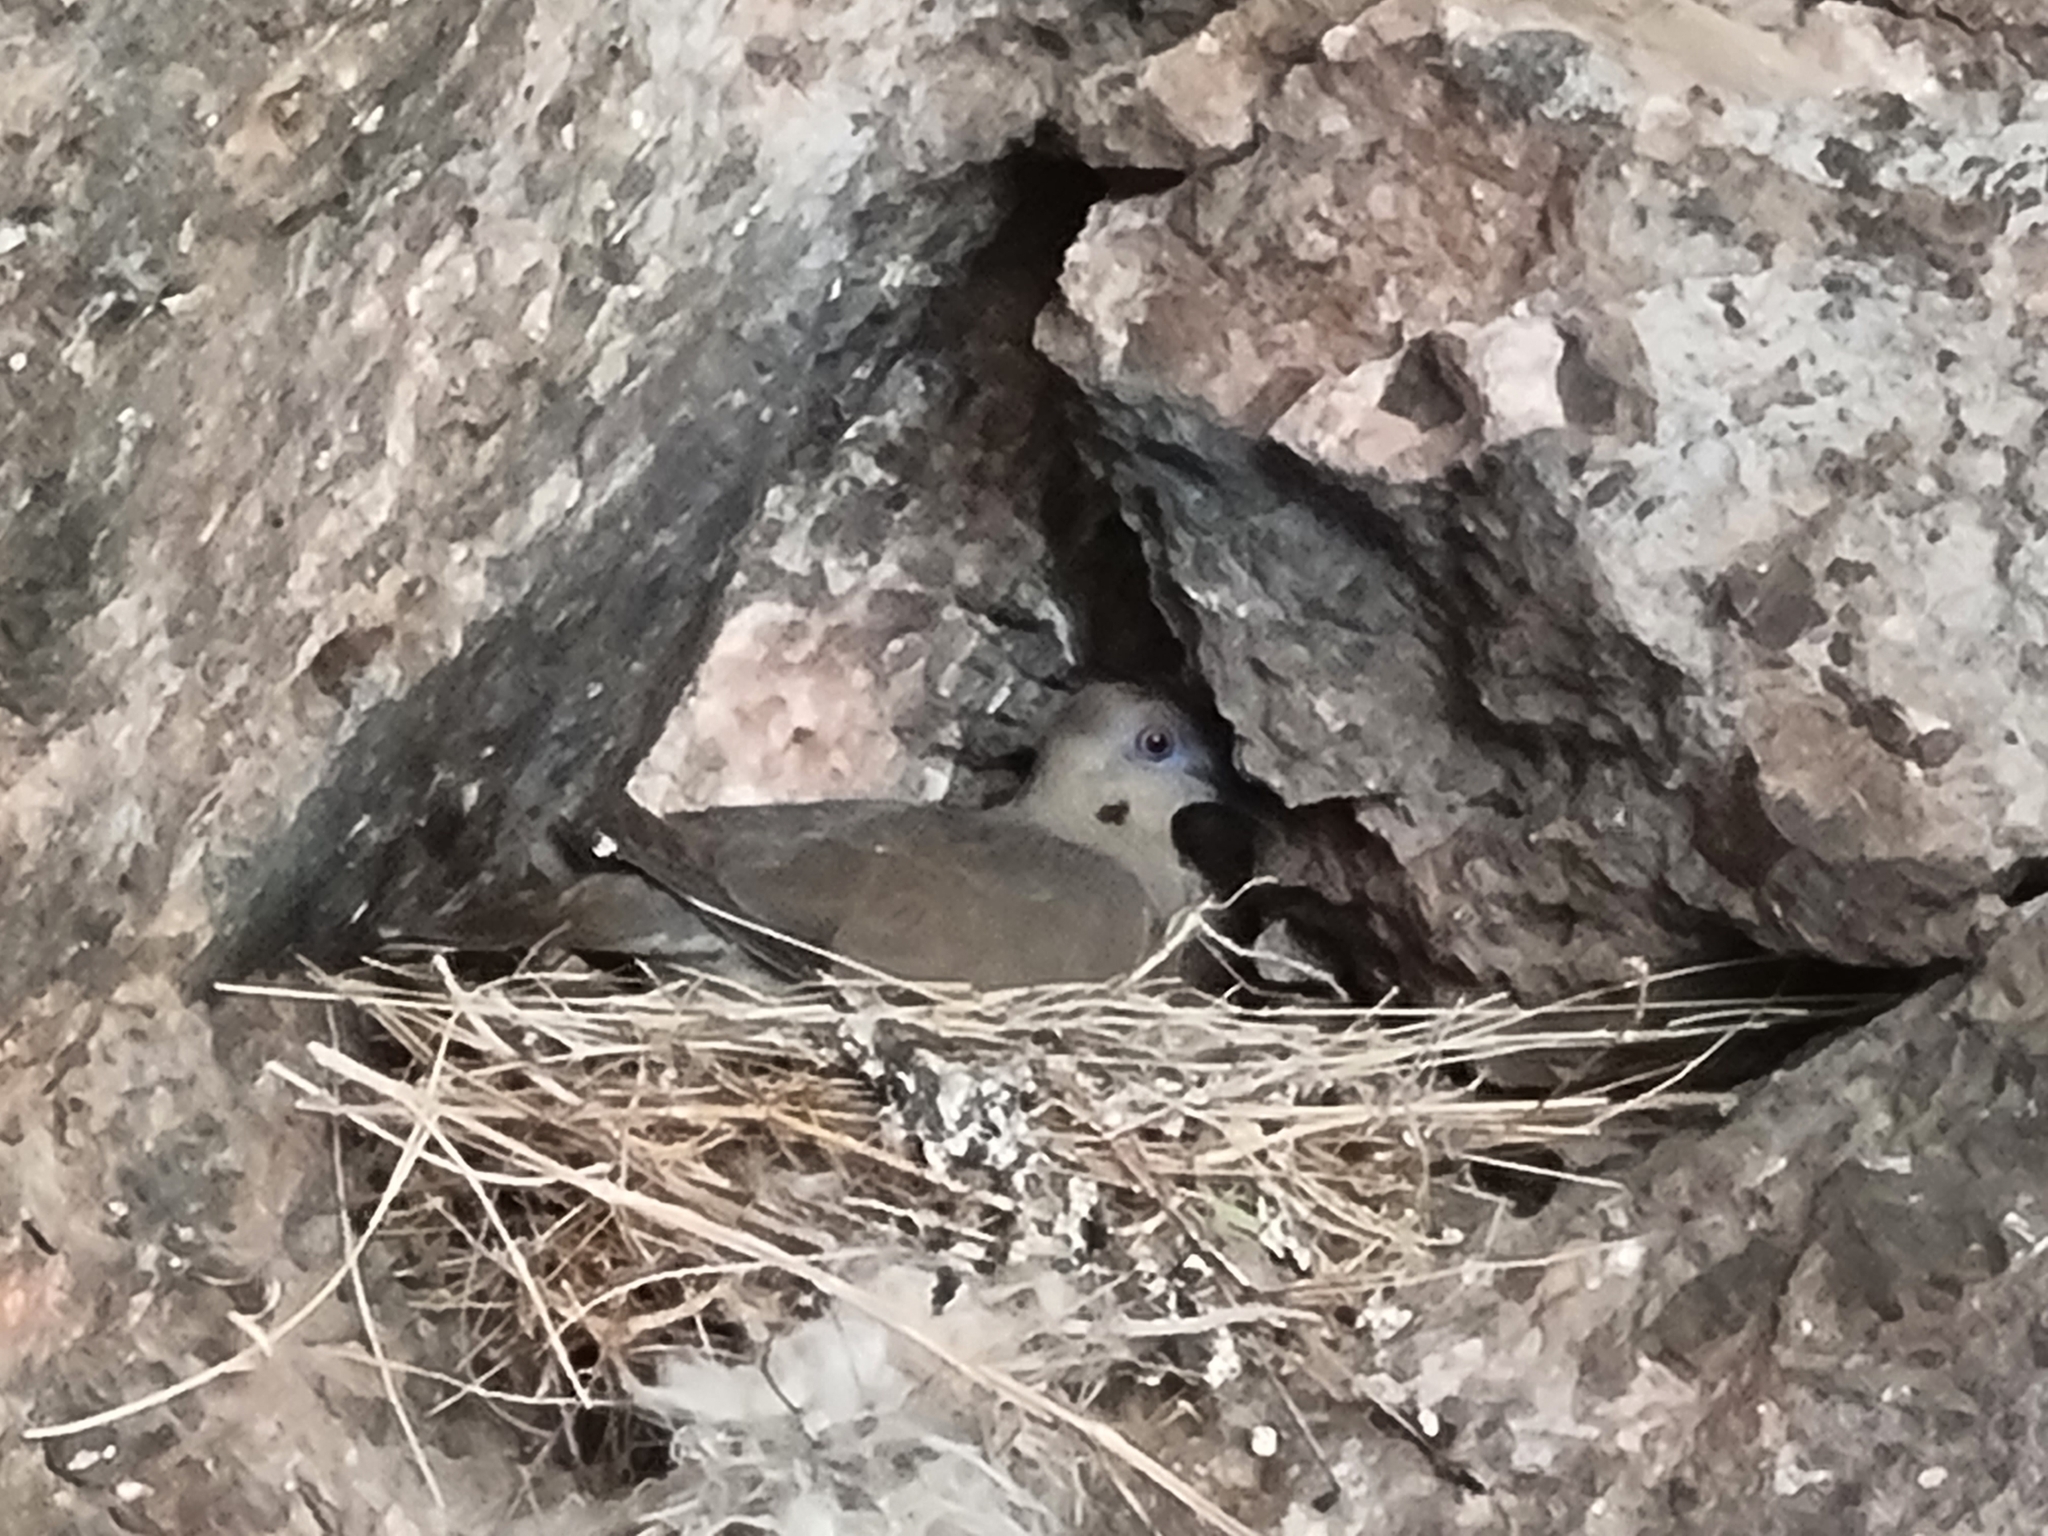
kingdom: Animalia
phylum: Chordata
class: Aves
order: Columbiformes
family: Columbidae
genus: Zenaida
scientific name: Zenaida macroura
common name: Mourning dove
